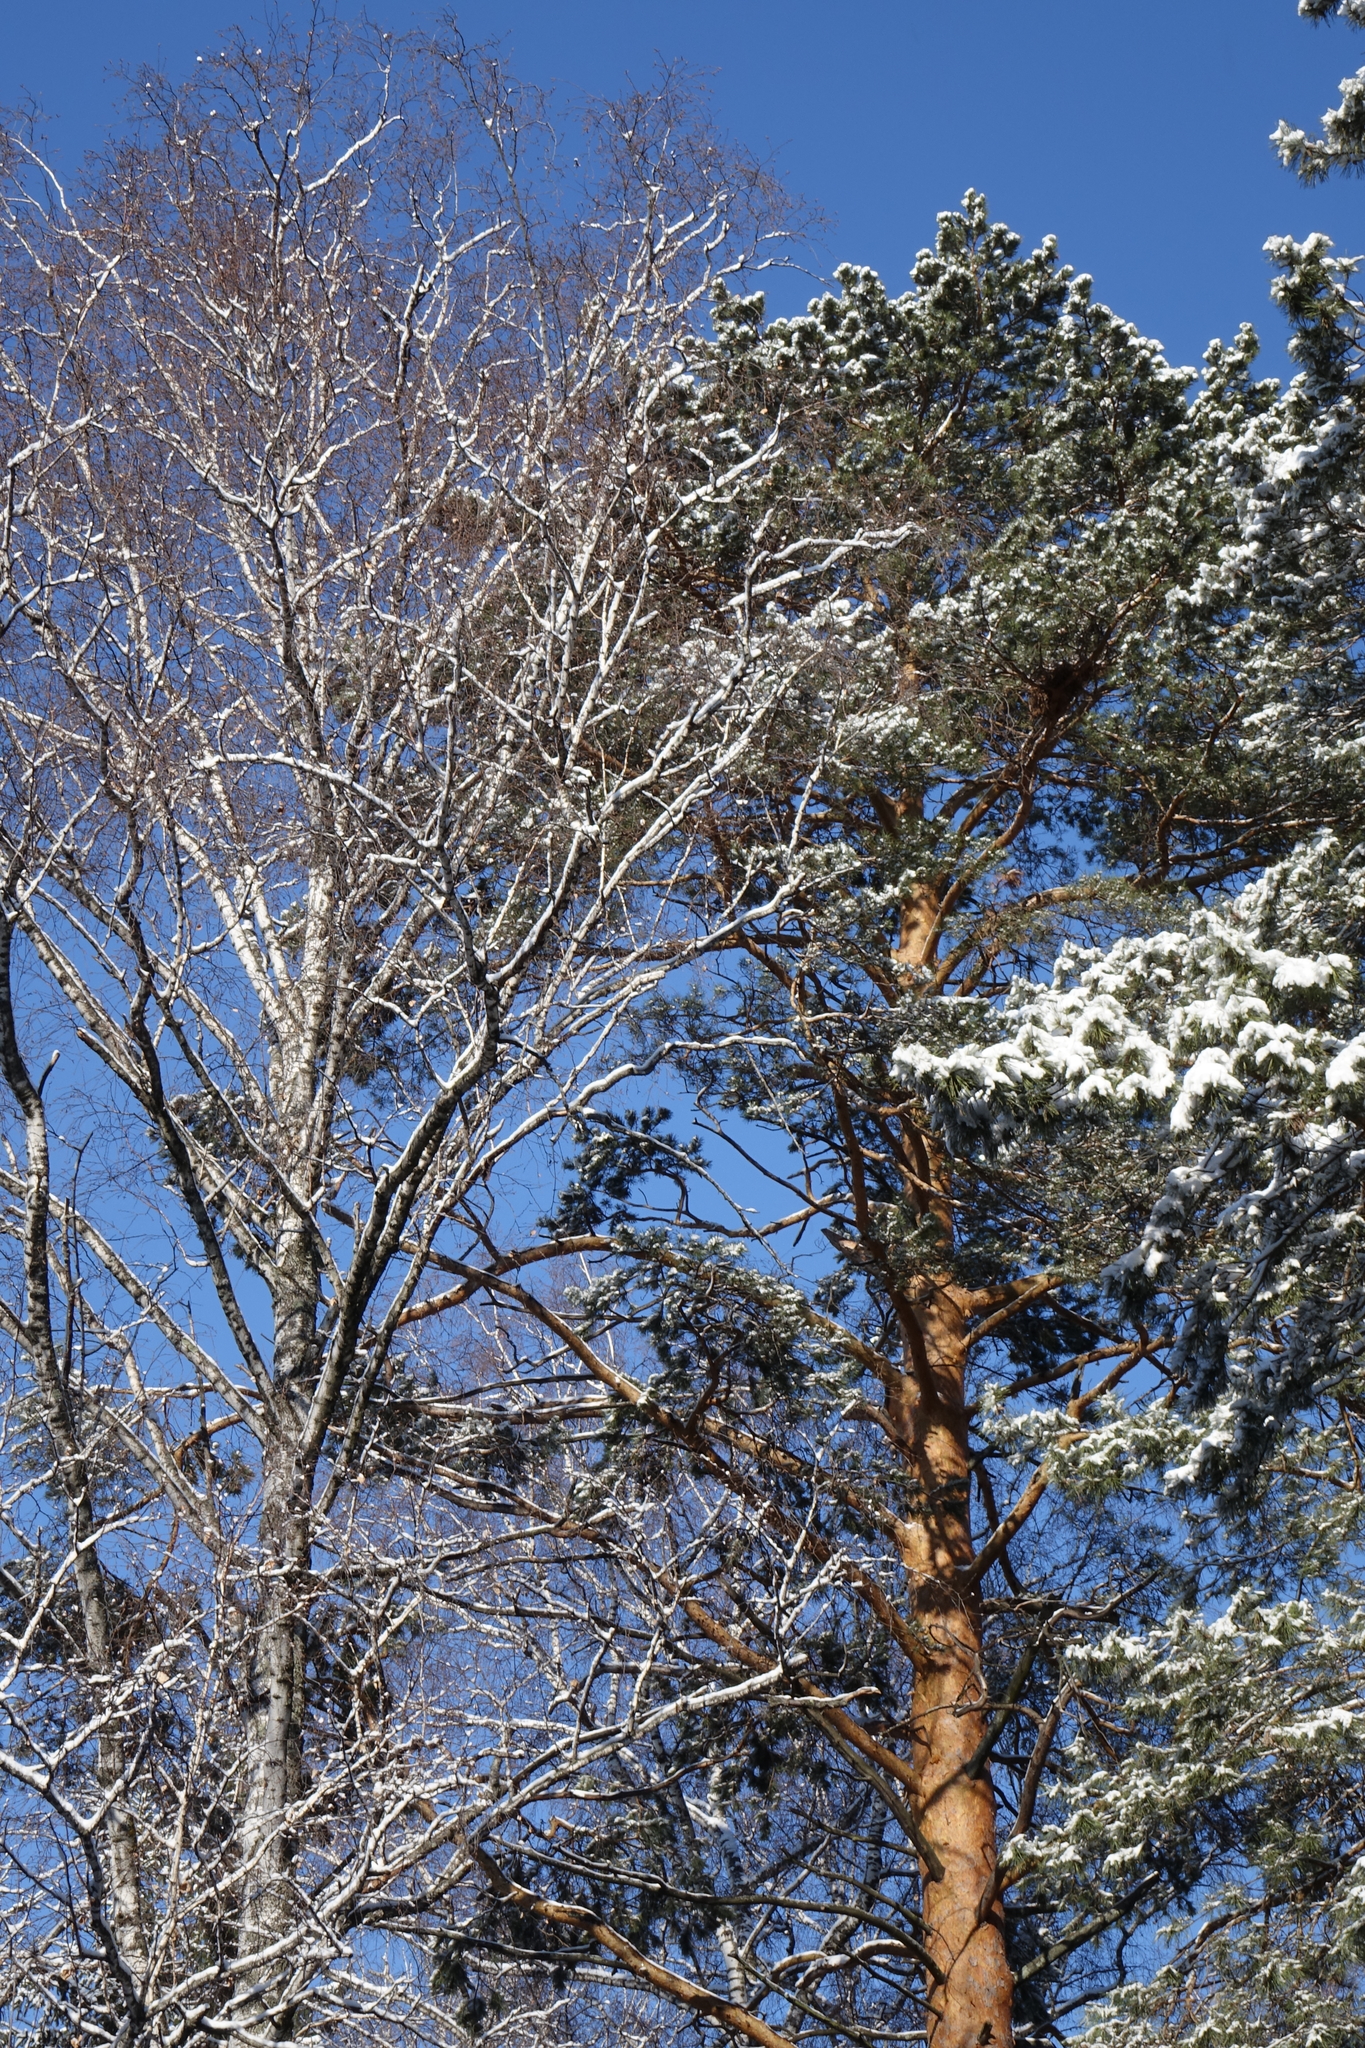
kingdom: Plantae
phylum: Tracheophyta
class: Pinopsida
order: Pinales
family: Pinaceae
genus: Pinus
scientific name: Pinus sylvestris
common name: Scots pine
